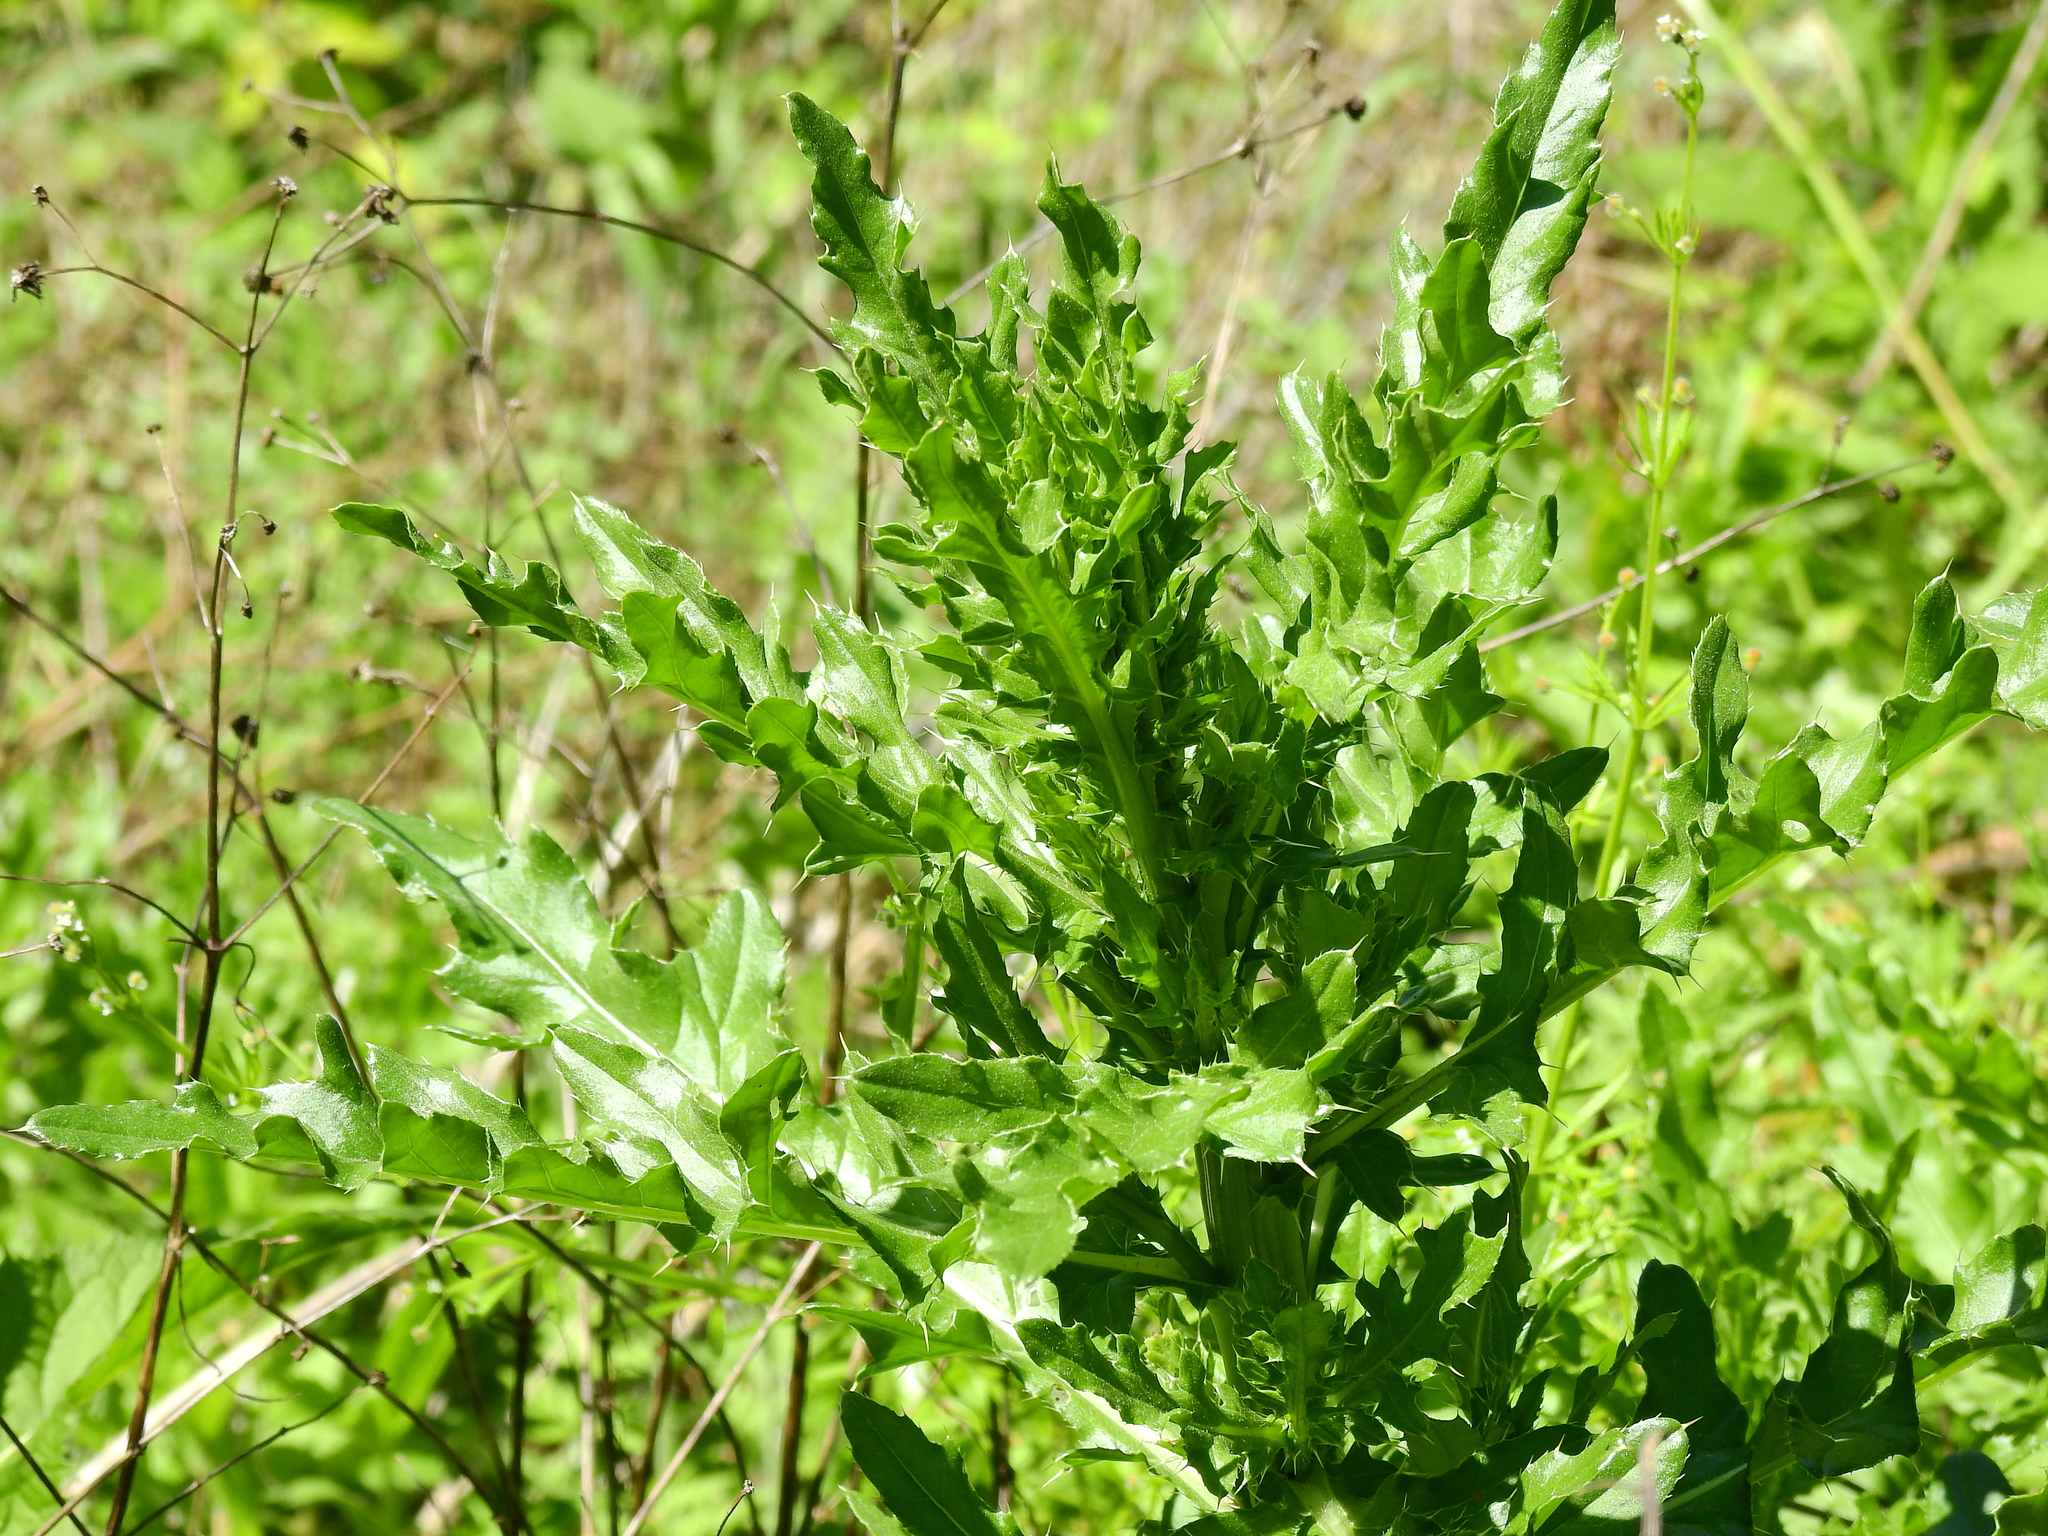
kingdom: Plantae
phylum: Tracheophyta
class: Magnoliopsida
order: Asterales
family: Asteraceae
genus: Cirsium
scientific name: Cirsium arvense
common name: Creeping thistle
